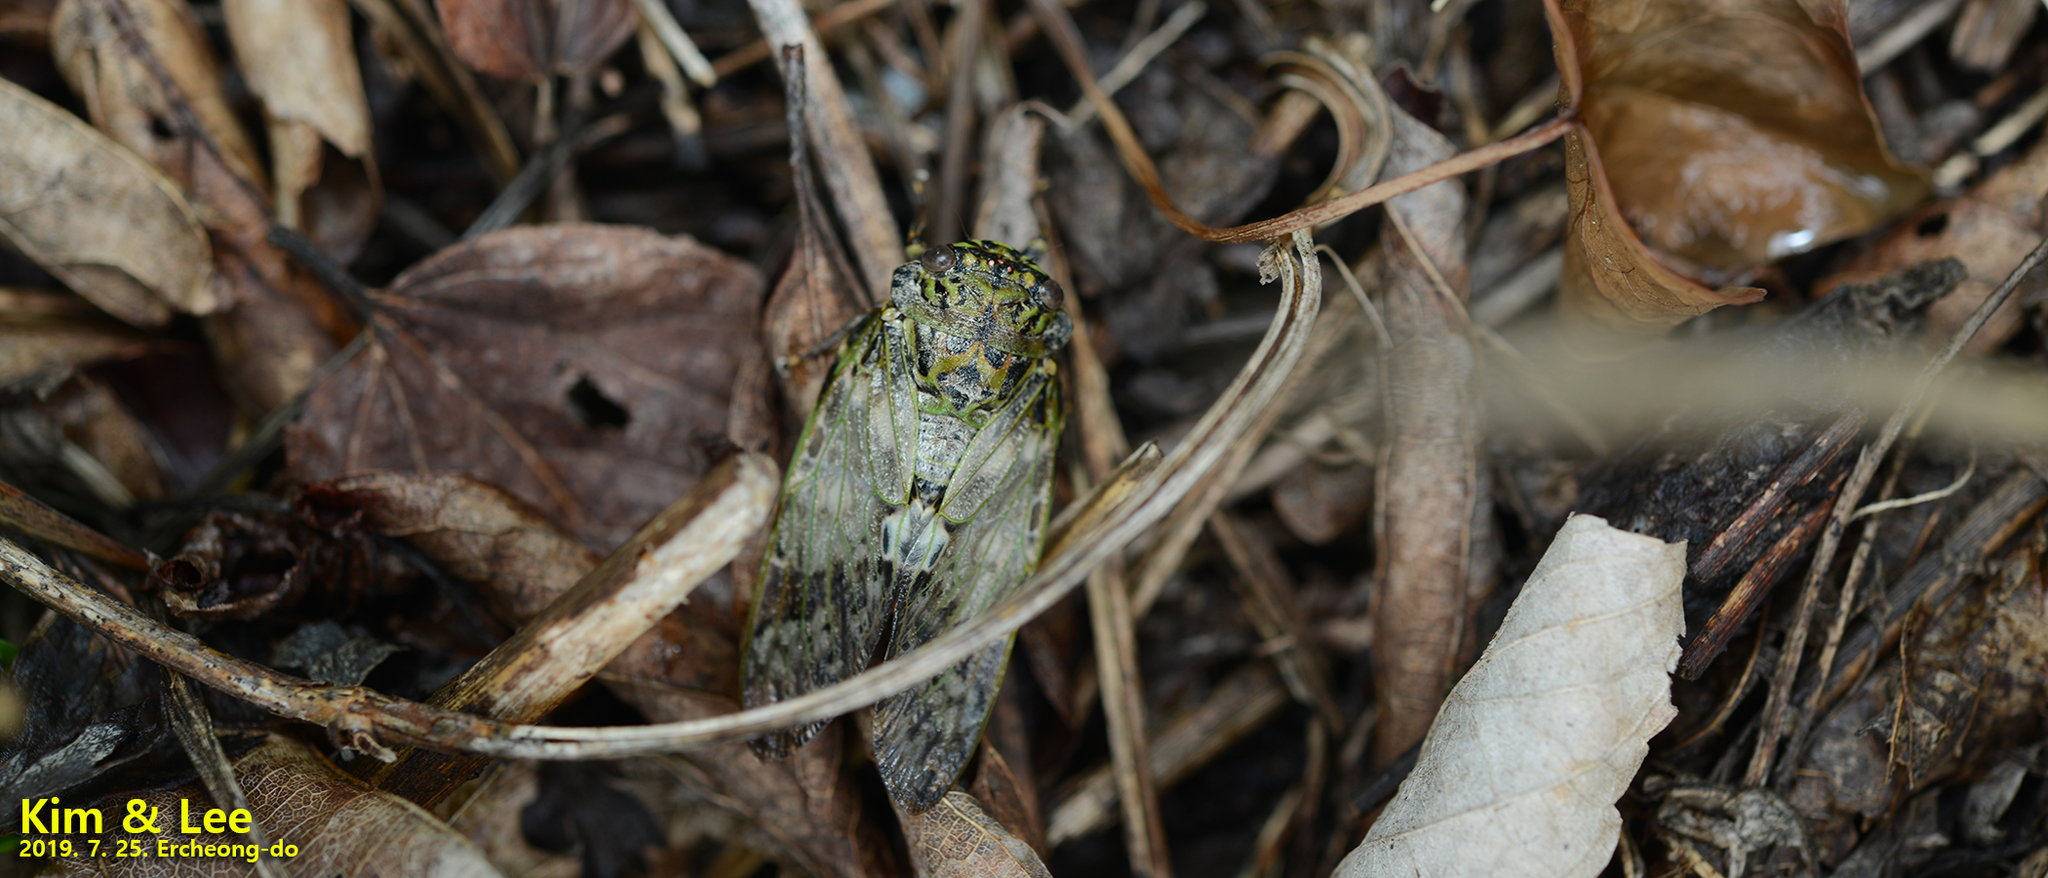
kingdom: Animalia
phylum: Arthropoda
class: Insecta
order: Hemiptera
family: Cicadidae
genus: Platypleura
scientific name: Platypleura kaempferi
